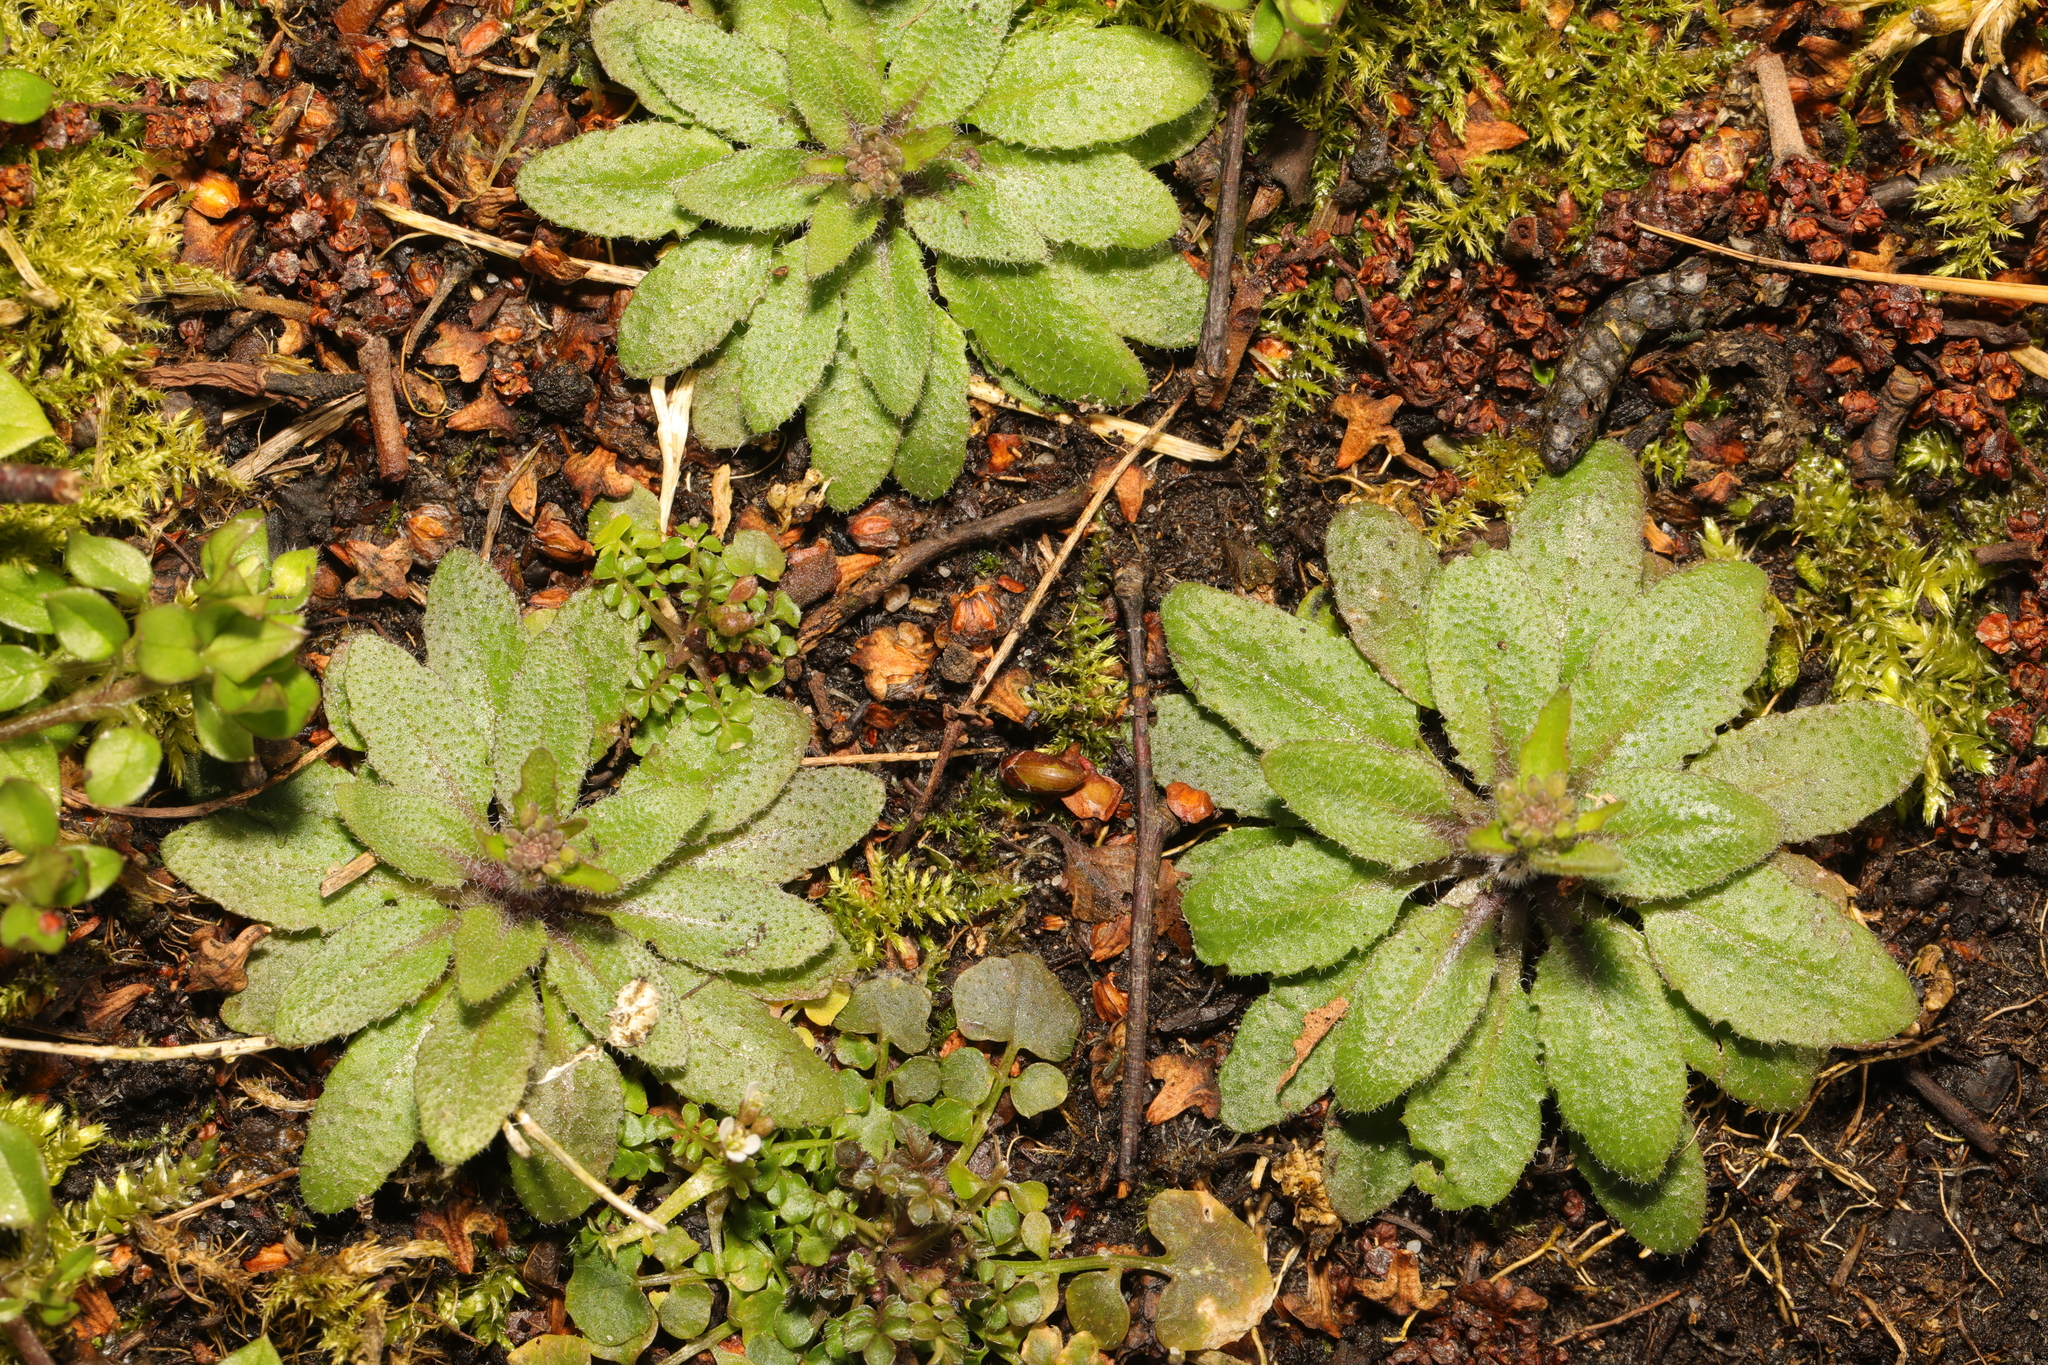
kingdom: Plantae
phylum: Tracheophyta
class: Magnoliopsida
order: Brassicales
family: Brassicaceae
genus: Arabidopsis
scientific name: Arabidopsis thaliana
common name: Thale cress
